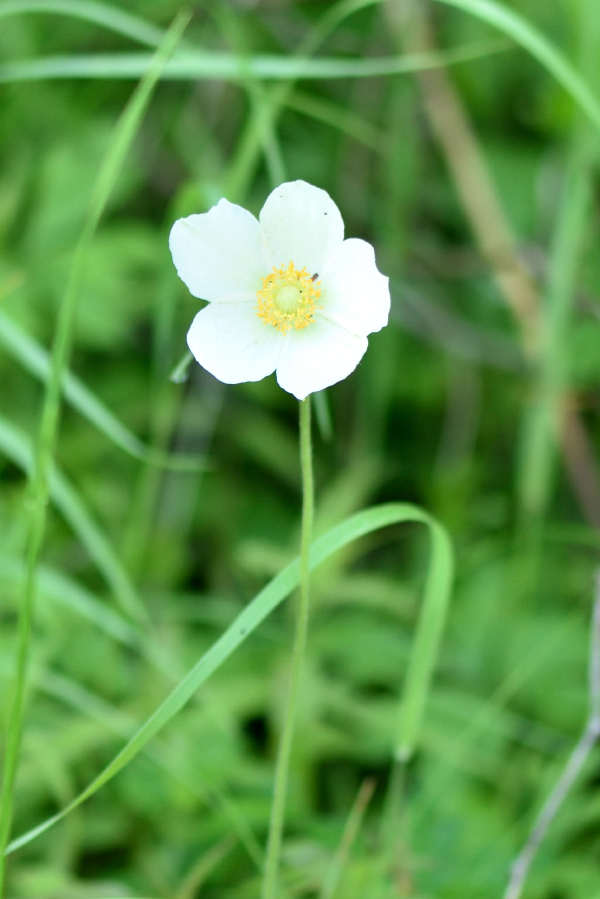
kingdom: Plantae
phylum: Tracheophyta
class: Magnoliopsida
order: Ranunculales
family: Ranunculaceae
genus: Anemone
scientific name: Anemone sylvestris
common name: Snowdrop anemone
